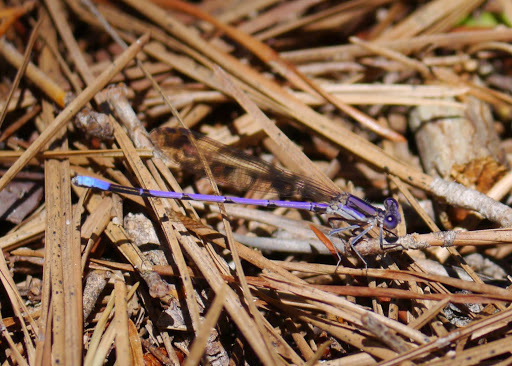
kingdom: Animalia
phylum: Arthropoda
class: Insecta
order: Odonata
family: Coenagrionidae
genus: Argia
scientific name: Argia fumipennis
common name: Variable dancer
